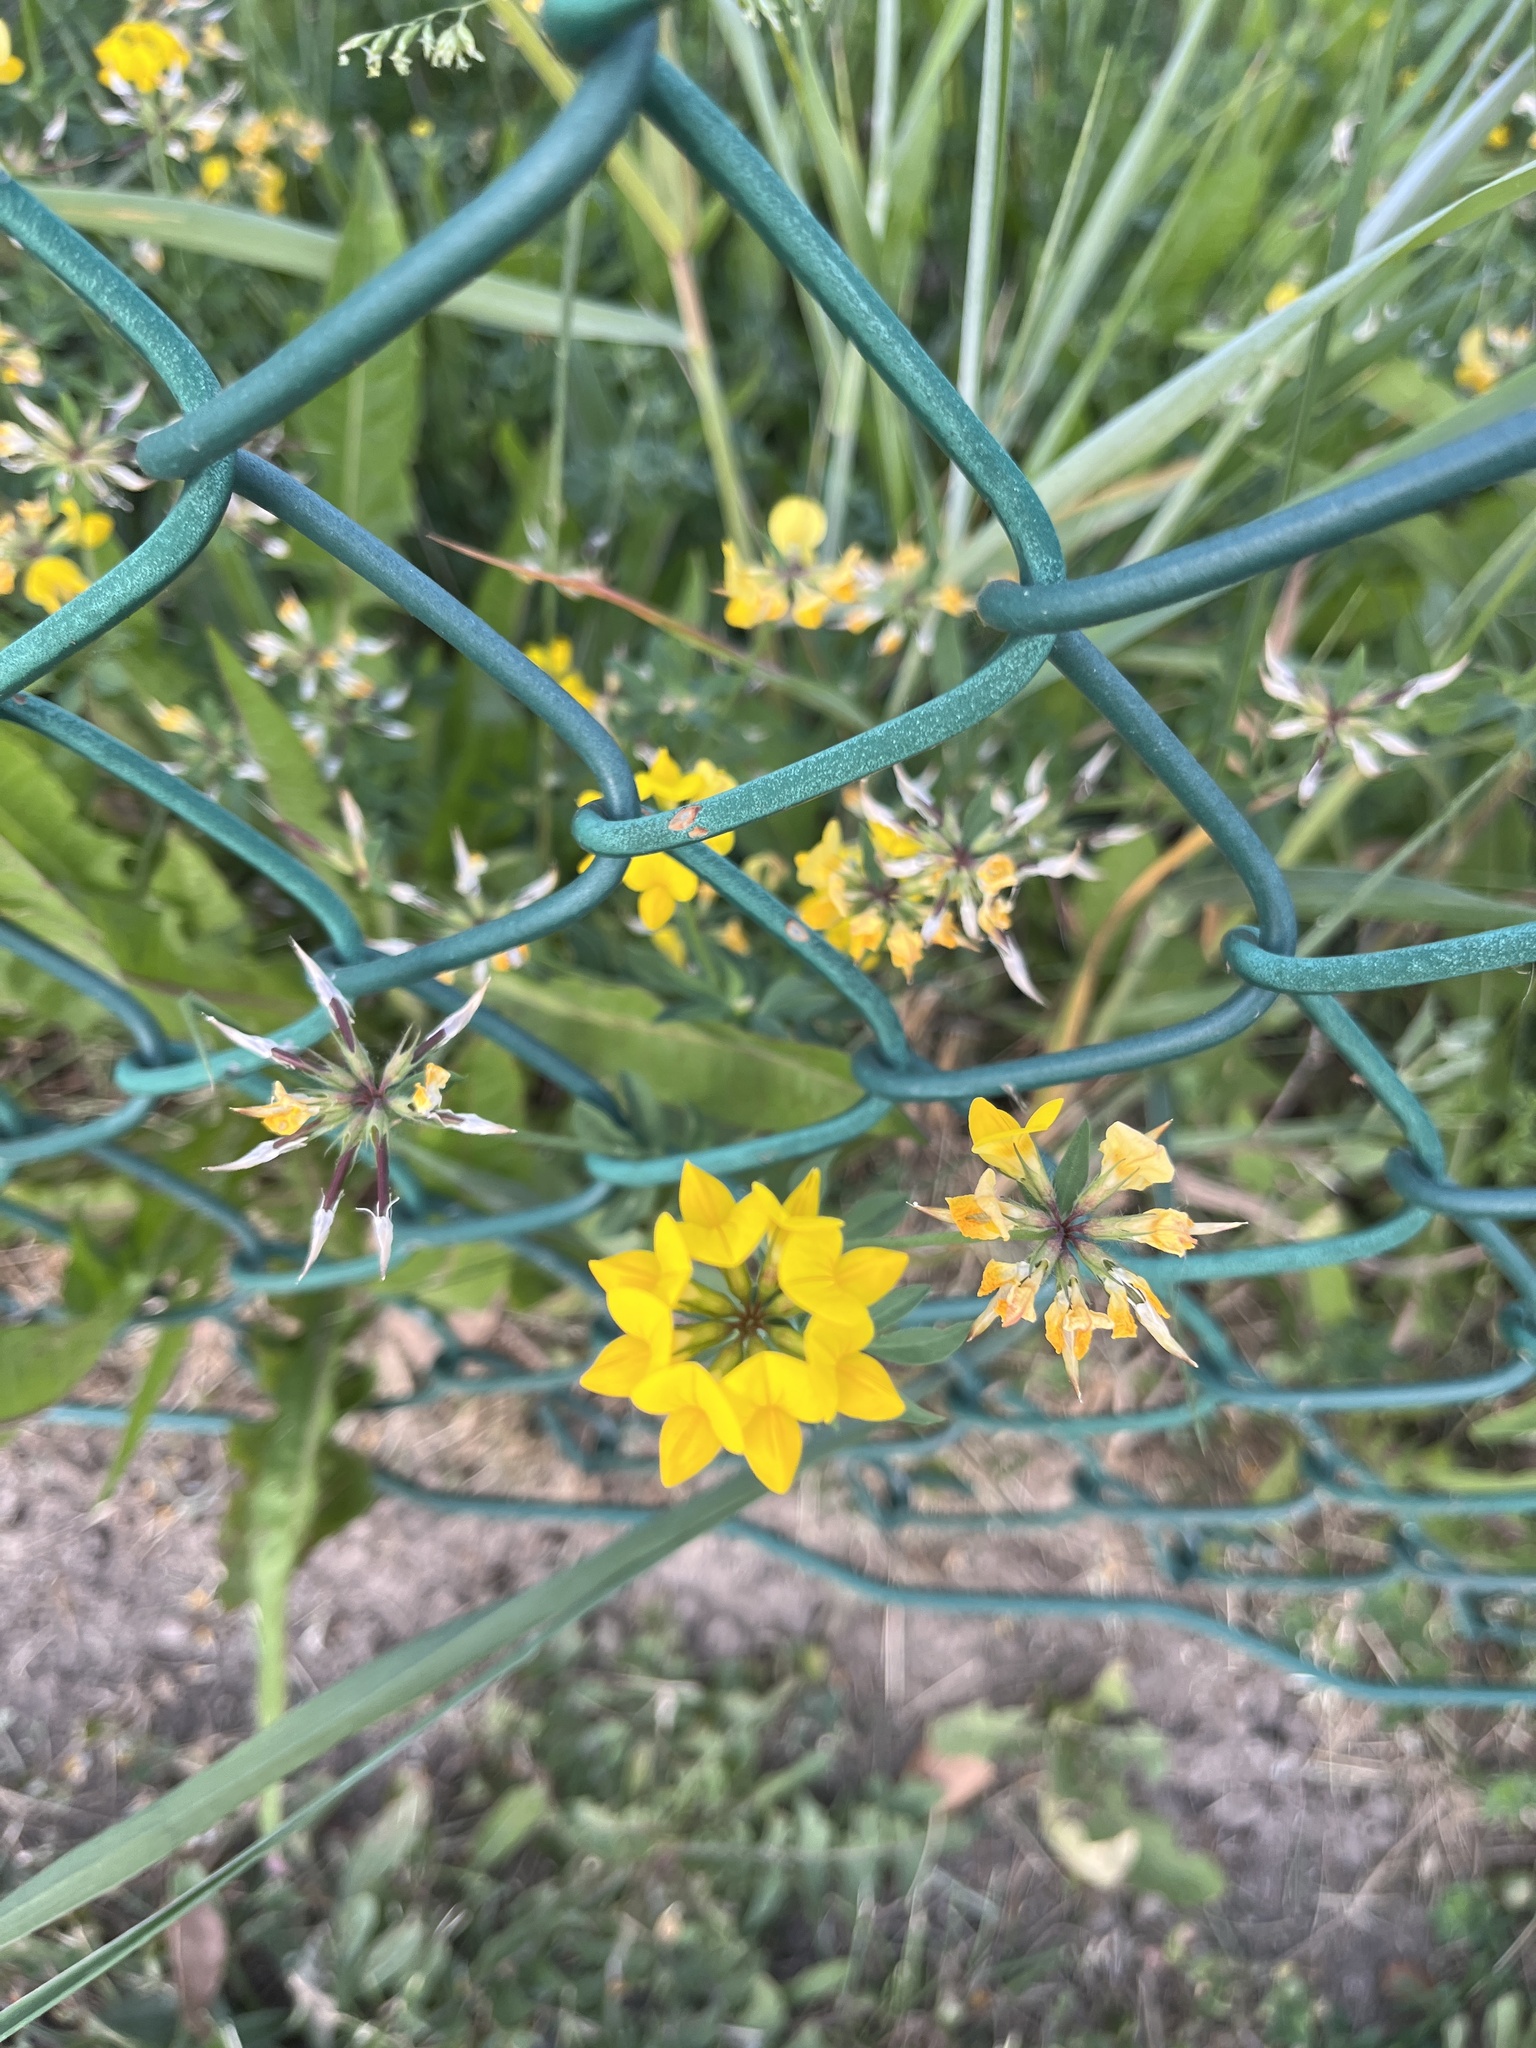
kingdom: Plantae
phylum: Tracheophyta
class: Magnoliopsida
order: Fabales
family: Fabaceae
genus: Lotus
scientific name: Lotus corniculatus
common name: Common bird's-foot-trefoil
